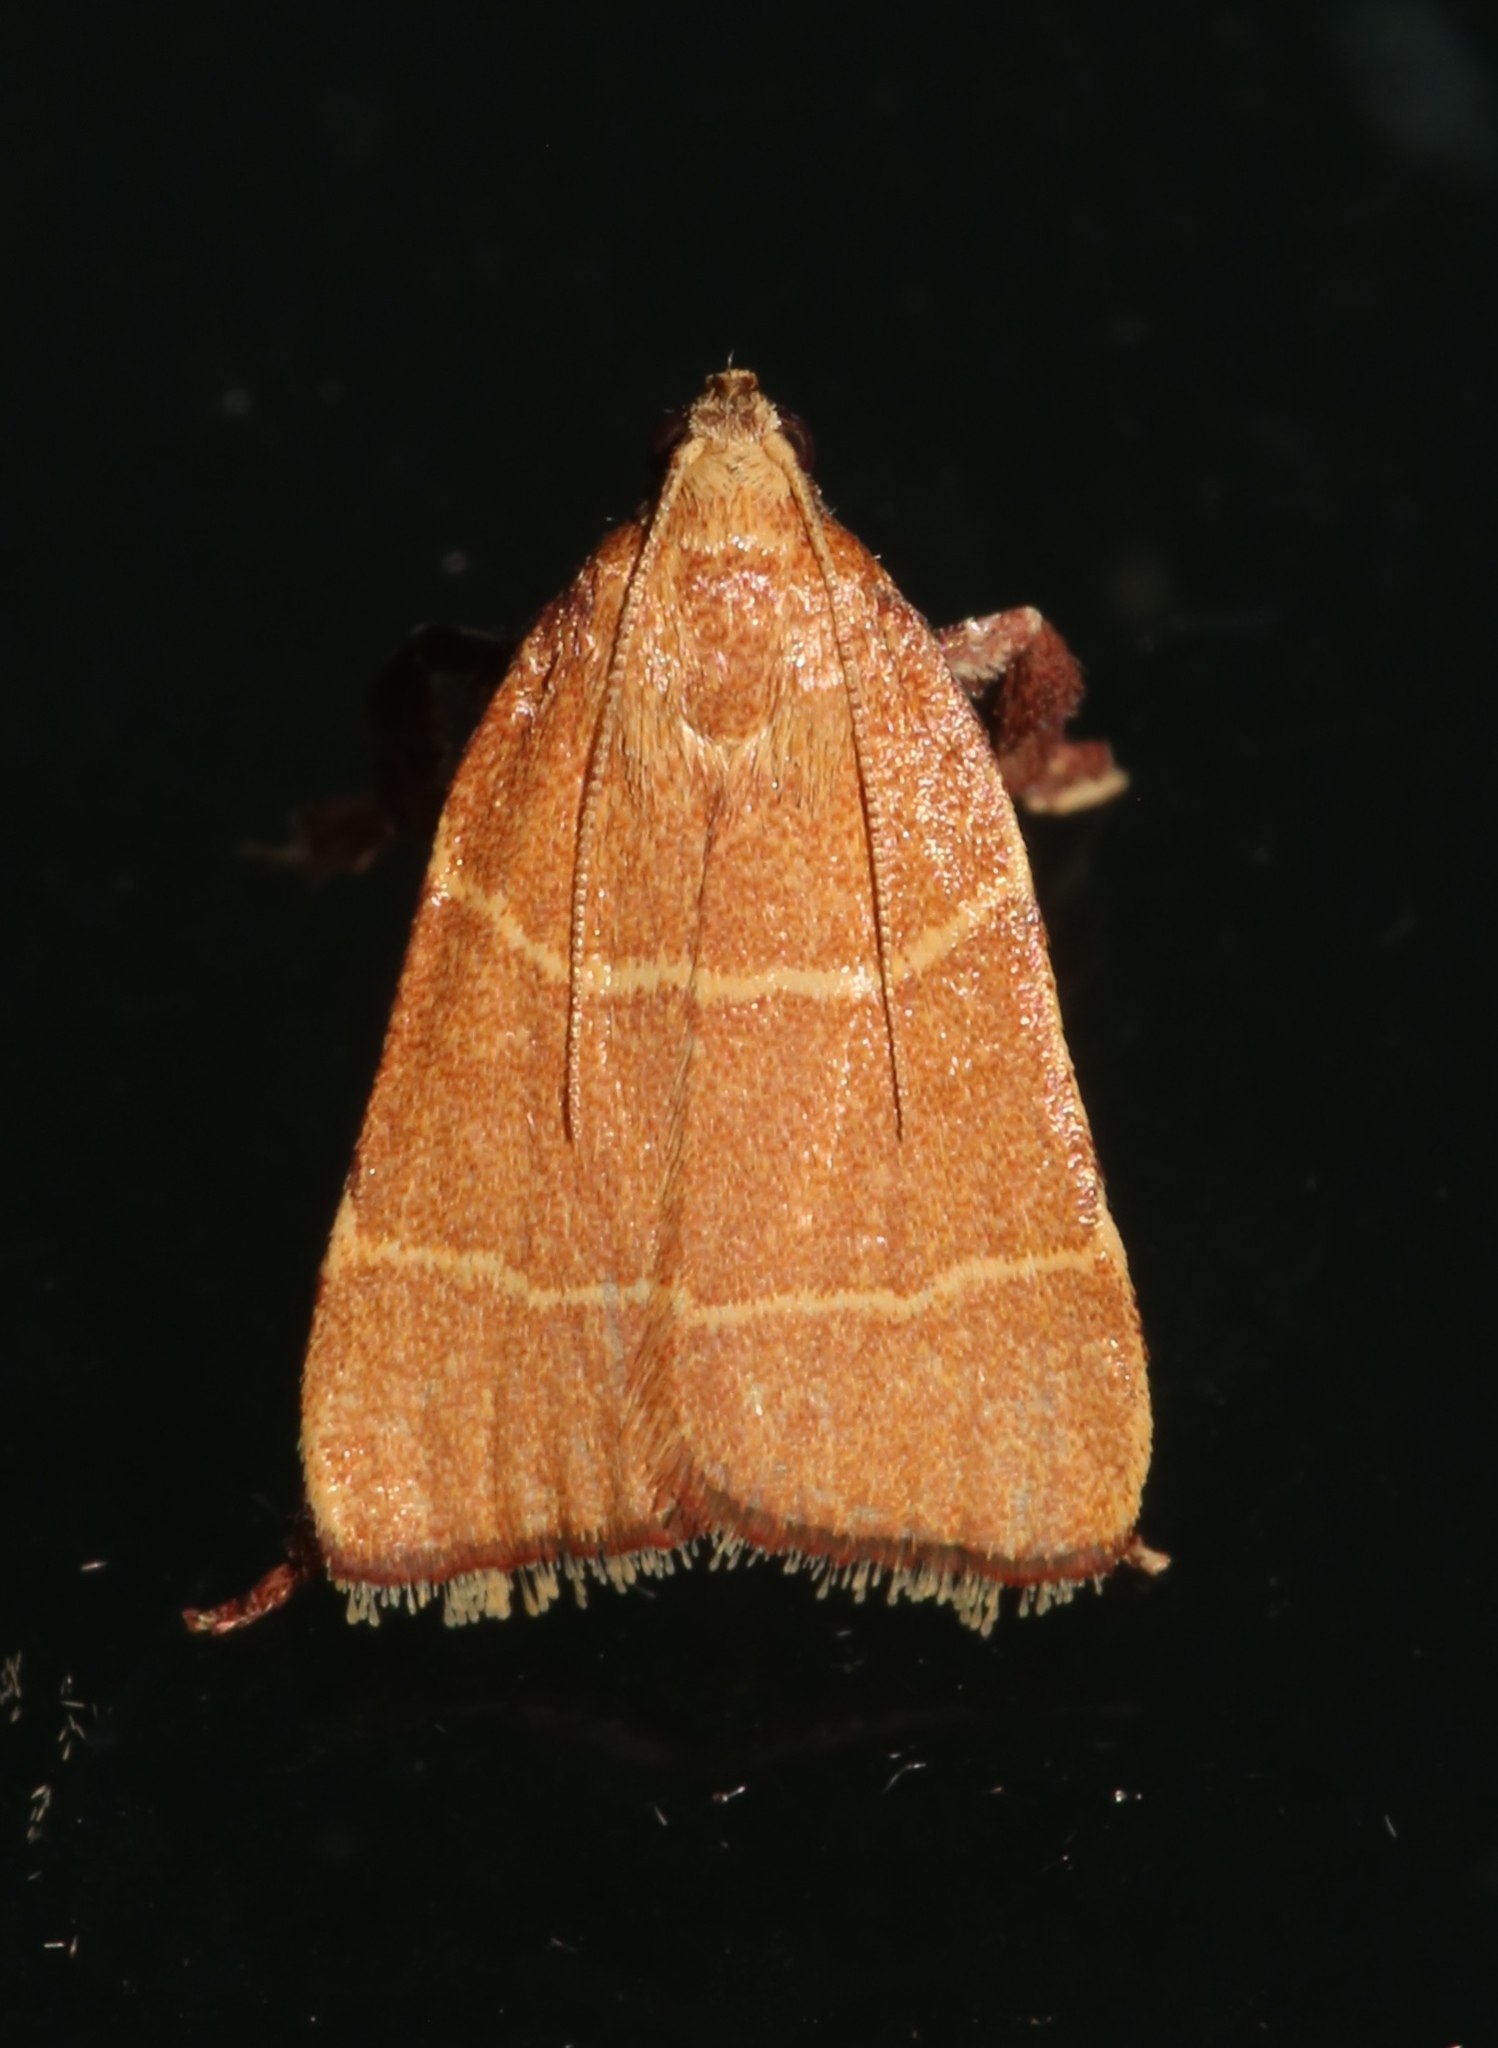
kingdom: Animalia
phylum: Arthropoda
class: Insecta
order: Lepidoptera
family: Pyralidae
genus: Parachma
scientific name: Parachma ochracealis
